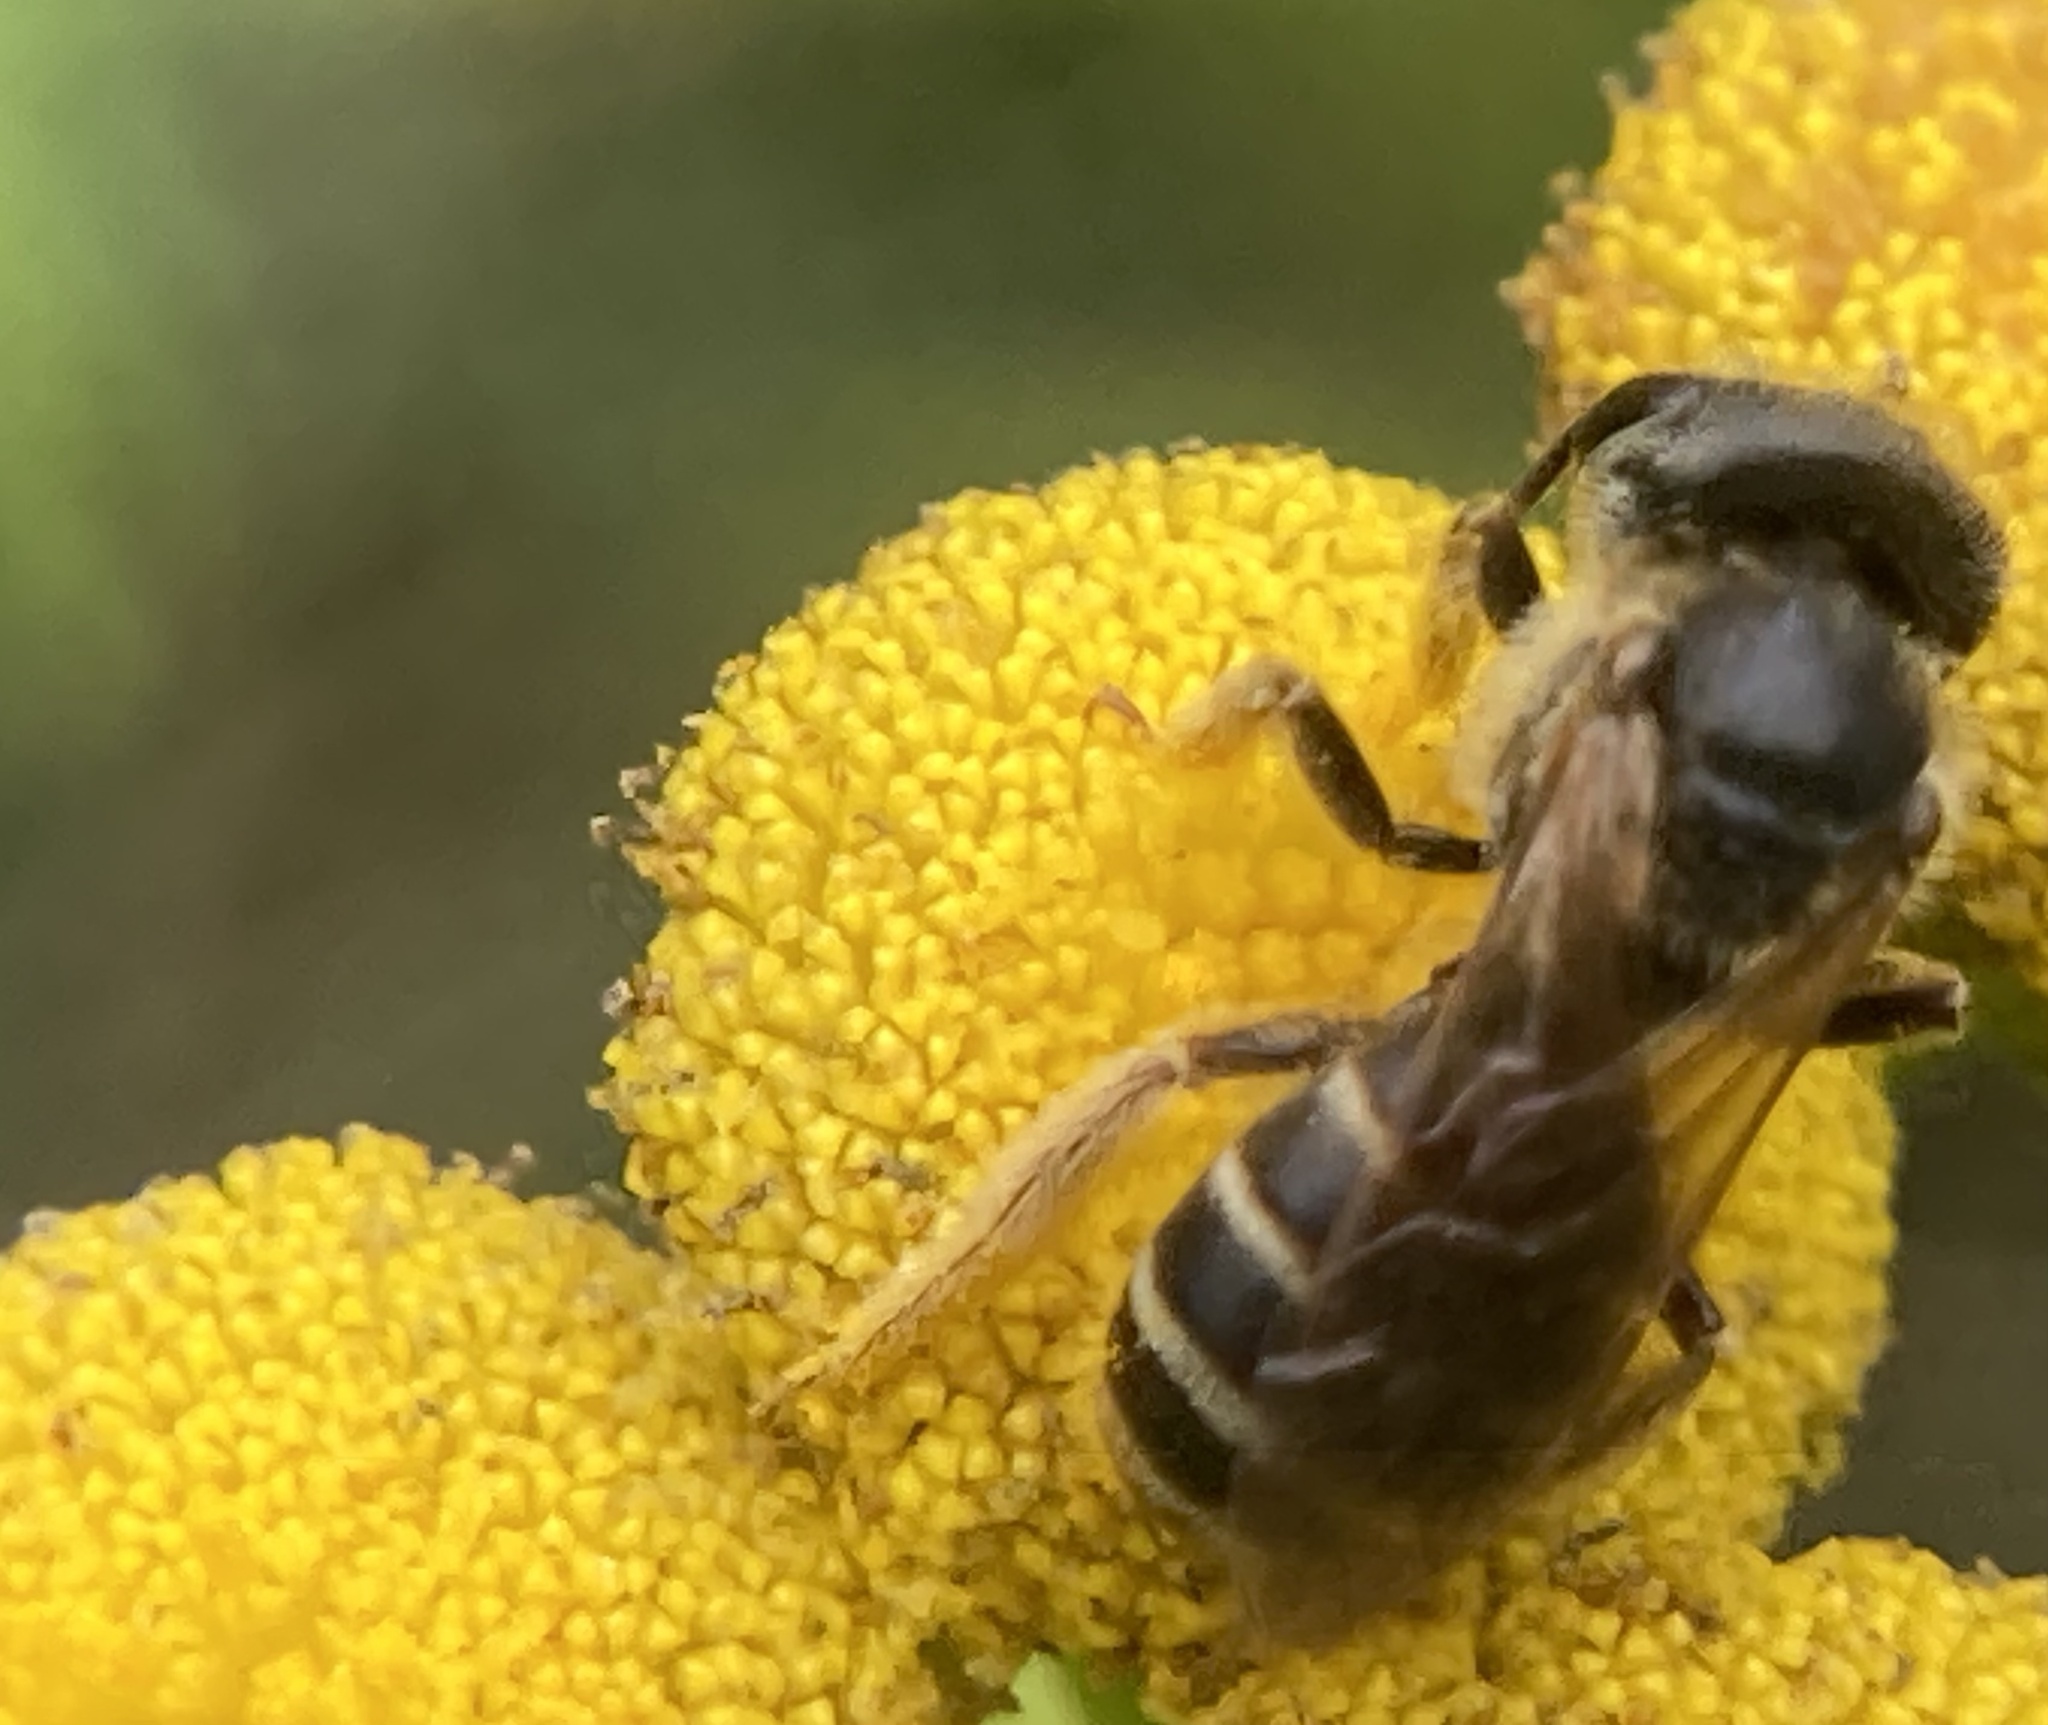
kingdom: Animalia
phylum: Arthropoda
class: Insecta
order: Hymenoptera
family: Halictidae
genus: Halictus
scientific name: Halictus ligatus
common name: Ligated furrow bee
